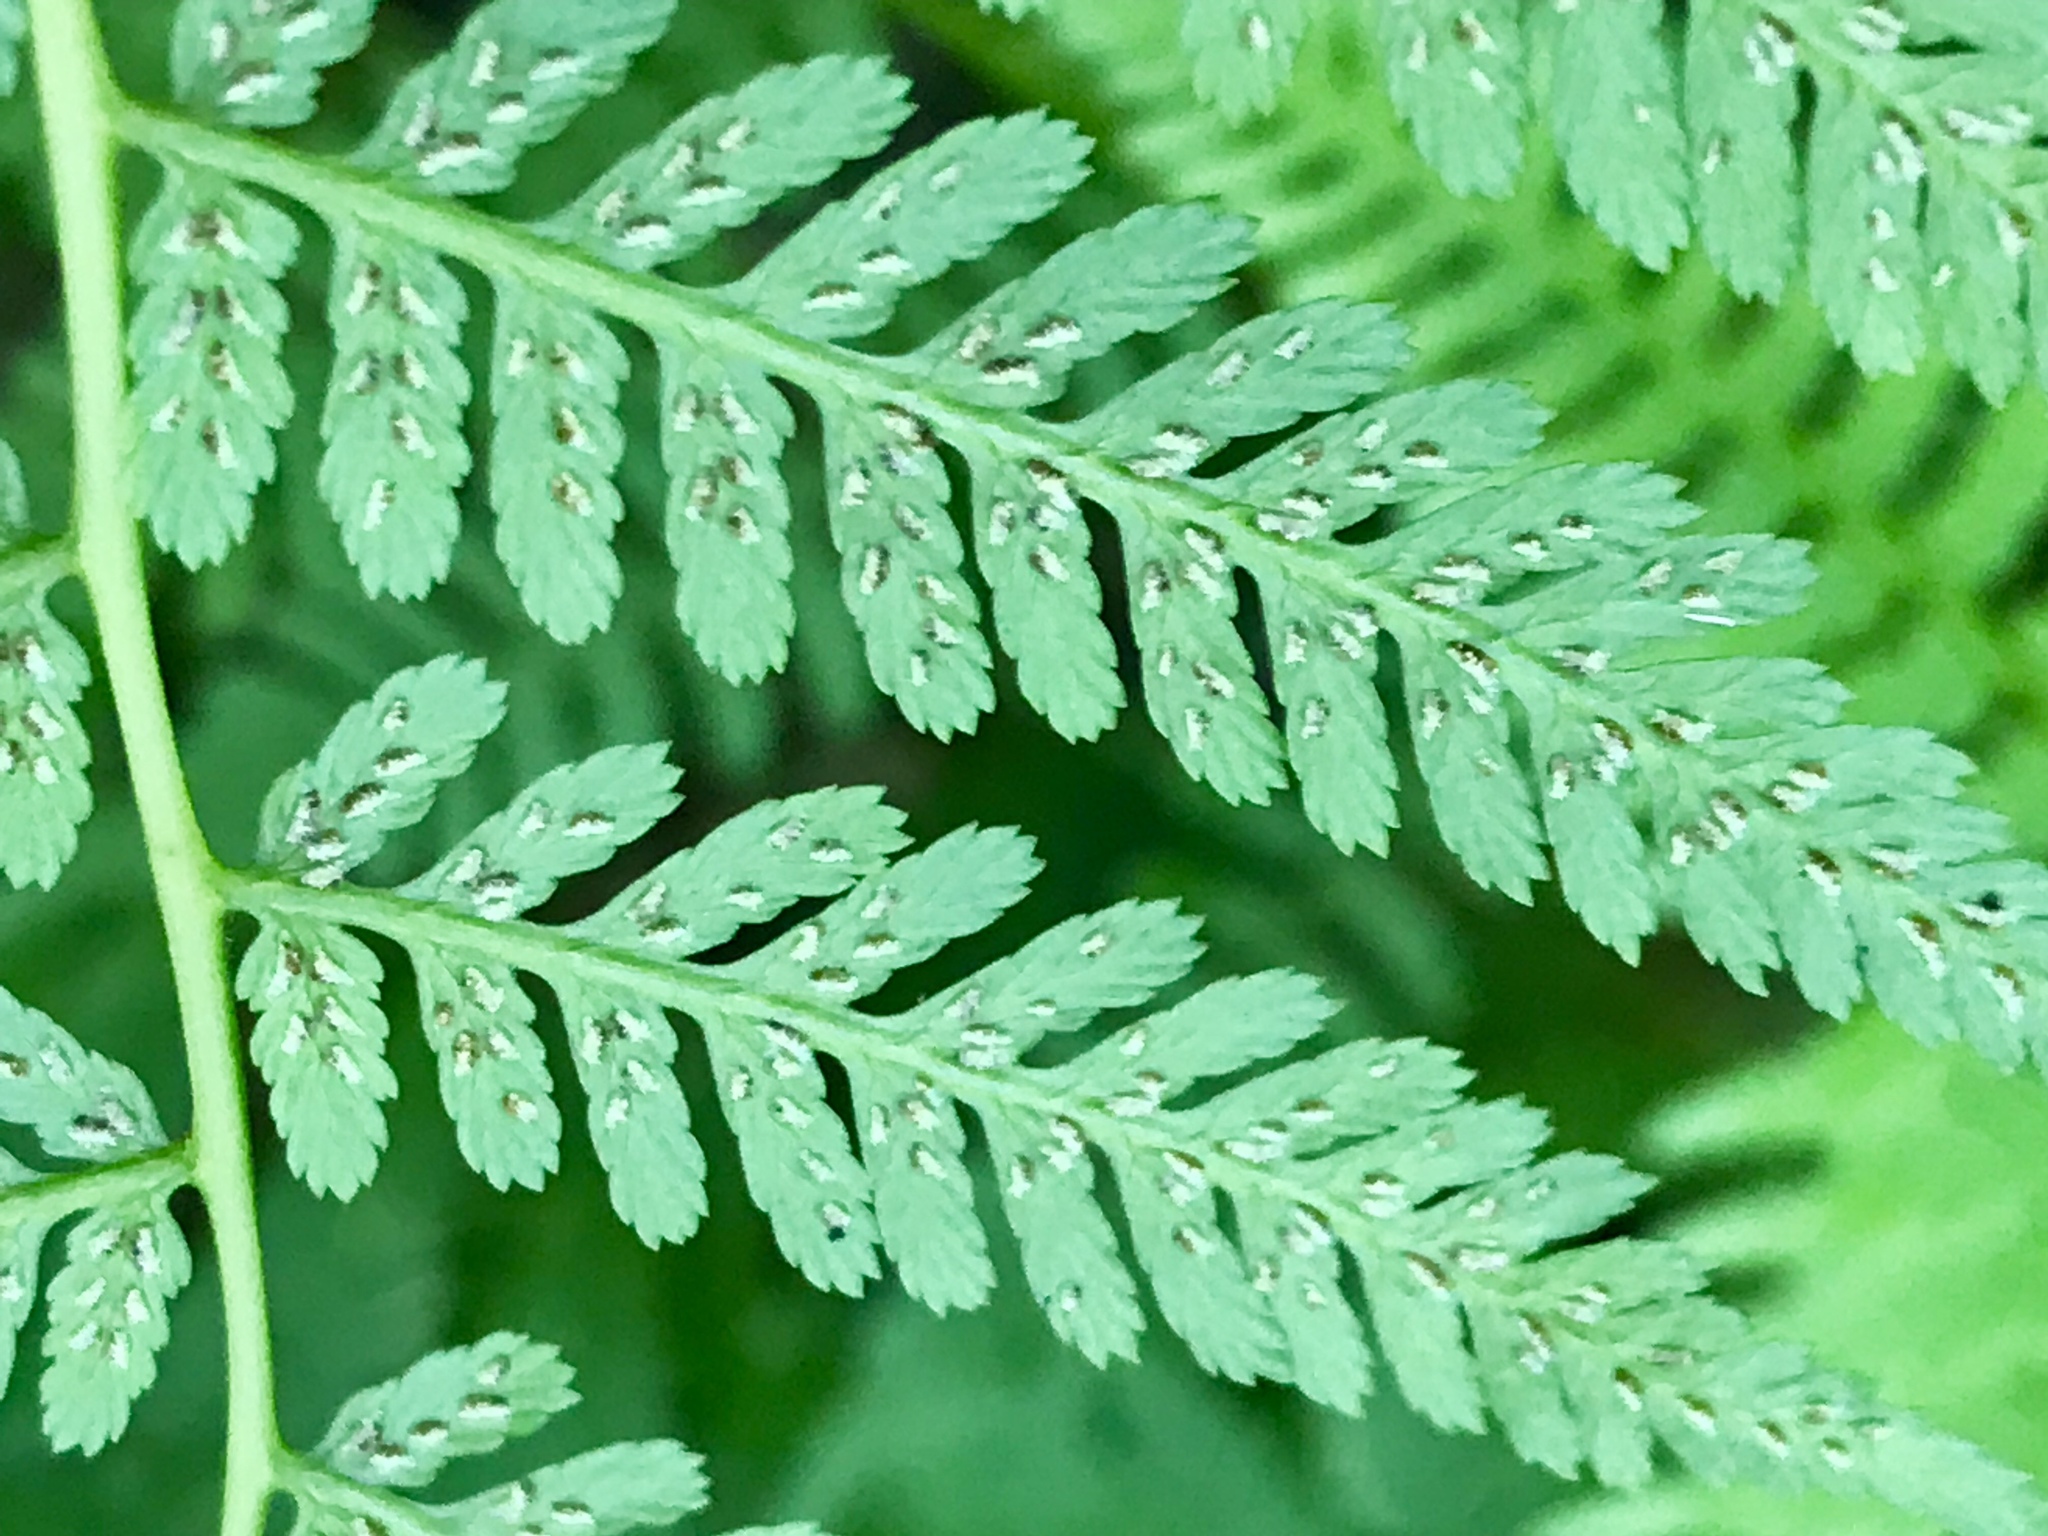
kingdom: Plantae
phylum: Tracheophyta
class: Polypodiopsida
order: Polypodiales
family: Athyriaceae
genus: Athyrium
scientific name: Athyrium asplenioides
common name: Southern lady fern
